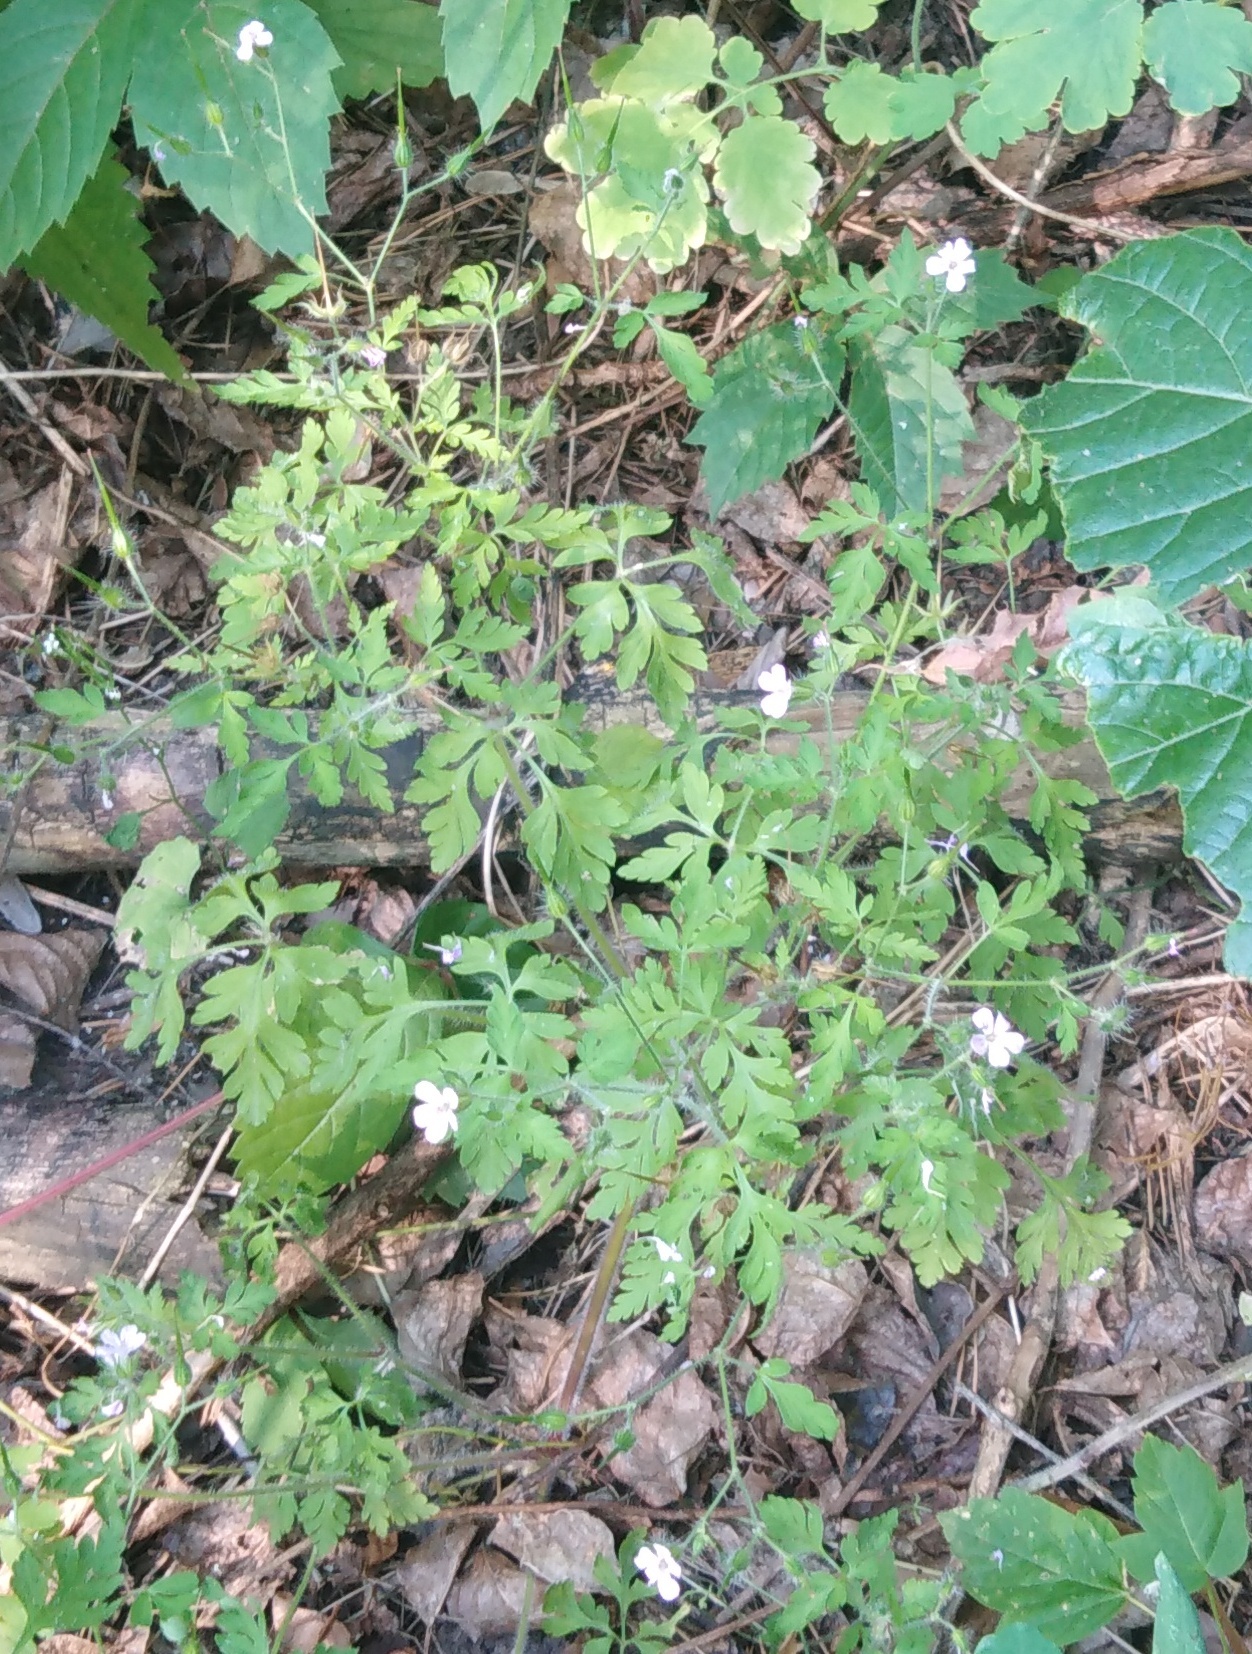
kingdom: Plantae
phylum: Tracheophyta
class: Magnoliopsida
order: Geraniales
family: Geraniaceae
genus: Geranium
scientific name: Geranium robertianum
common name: Herb-robert
